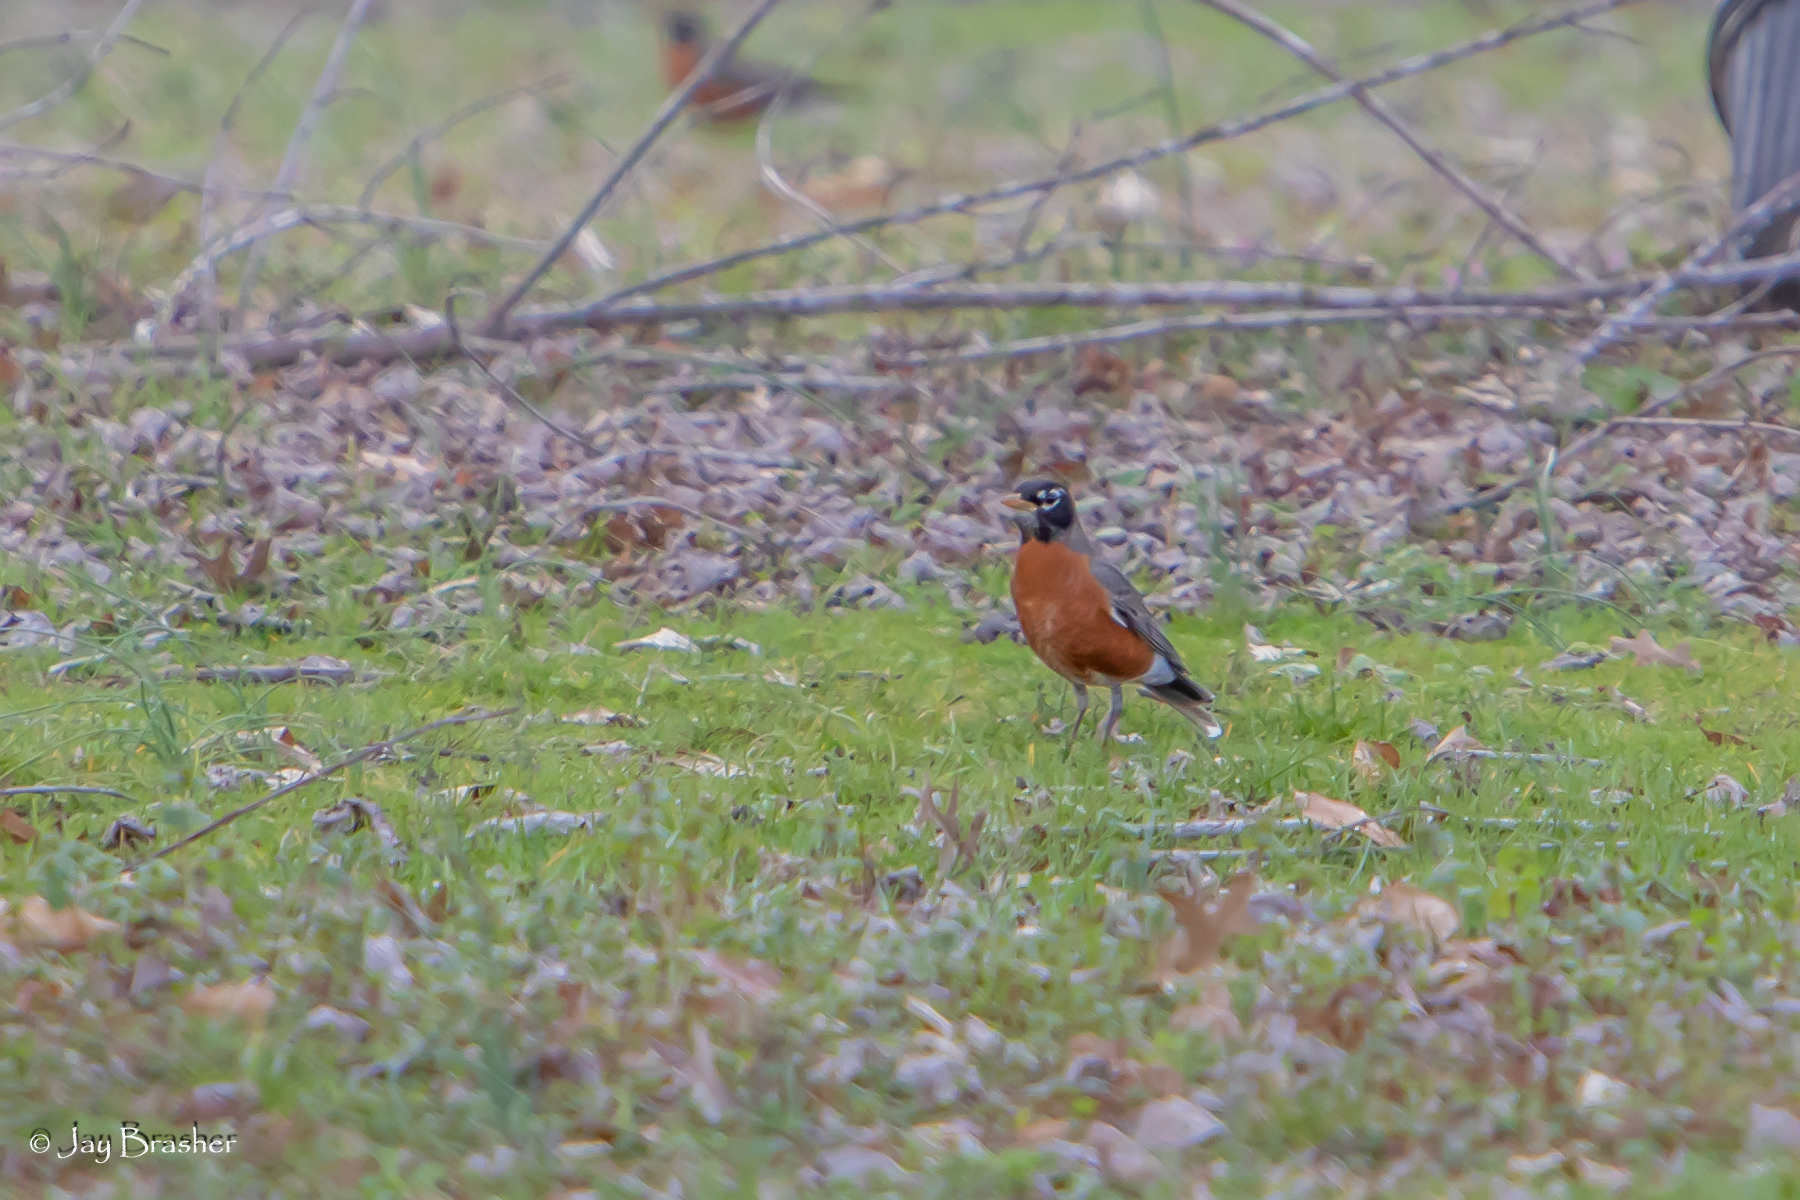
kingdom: Animalia
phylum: Chordata
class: Aves
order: Passeriformes
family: Turdidae
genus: Turdus
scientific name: Turdus migratorius
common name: American robin
